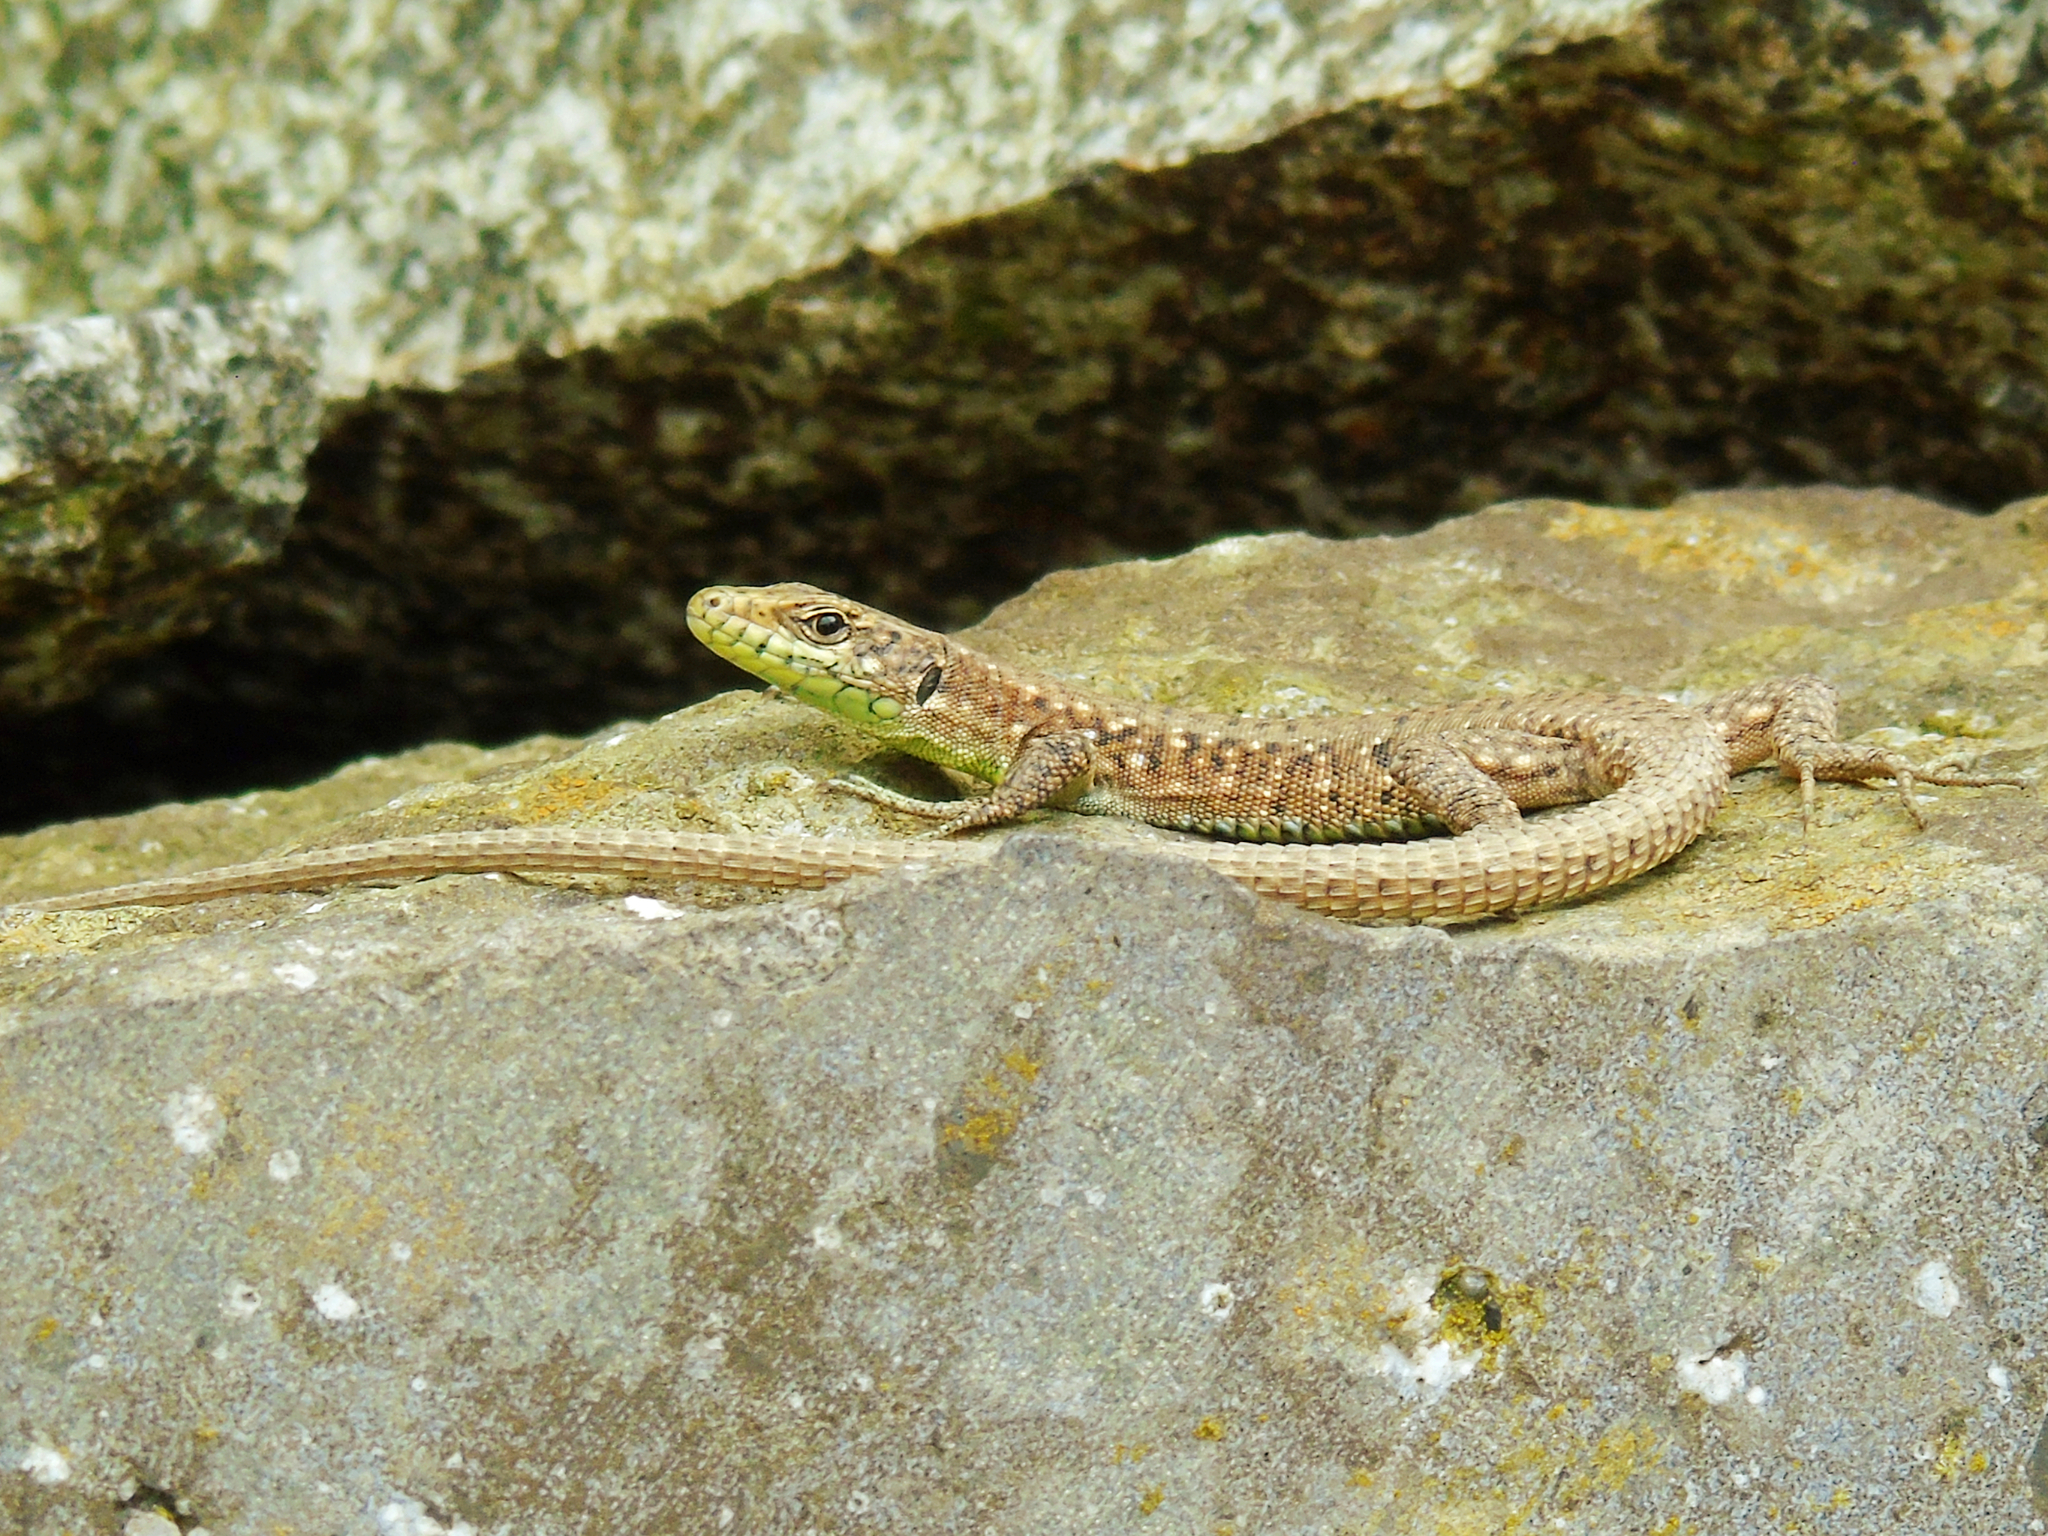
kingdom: Animalia
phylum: Chordata
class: Squamata
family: Lacertidae
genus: Darevskia
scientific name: Darevskia rudis
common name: Spiny-tailed lizard
